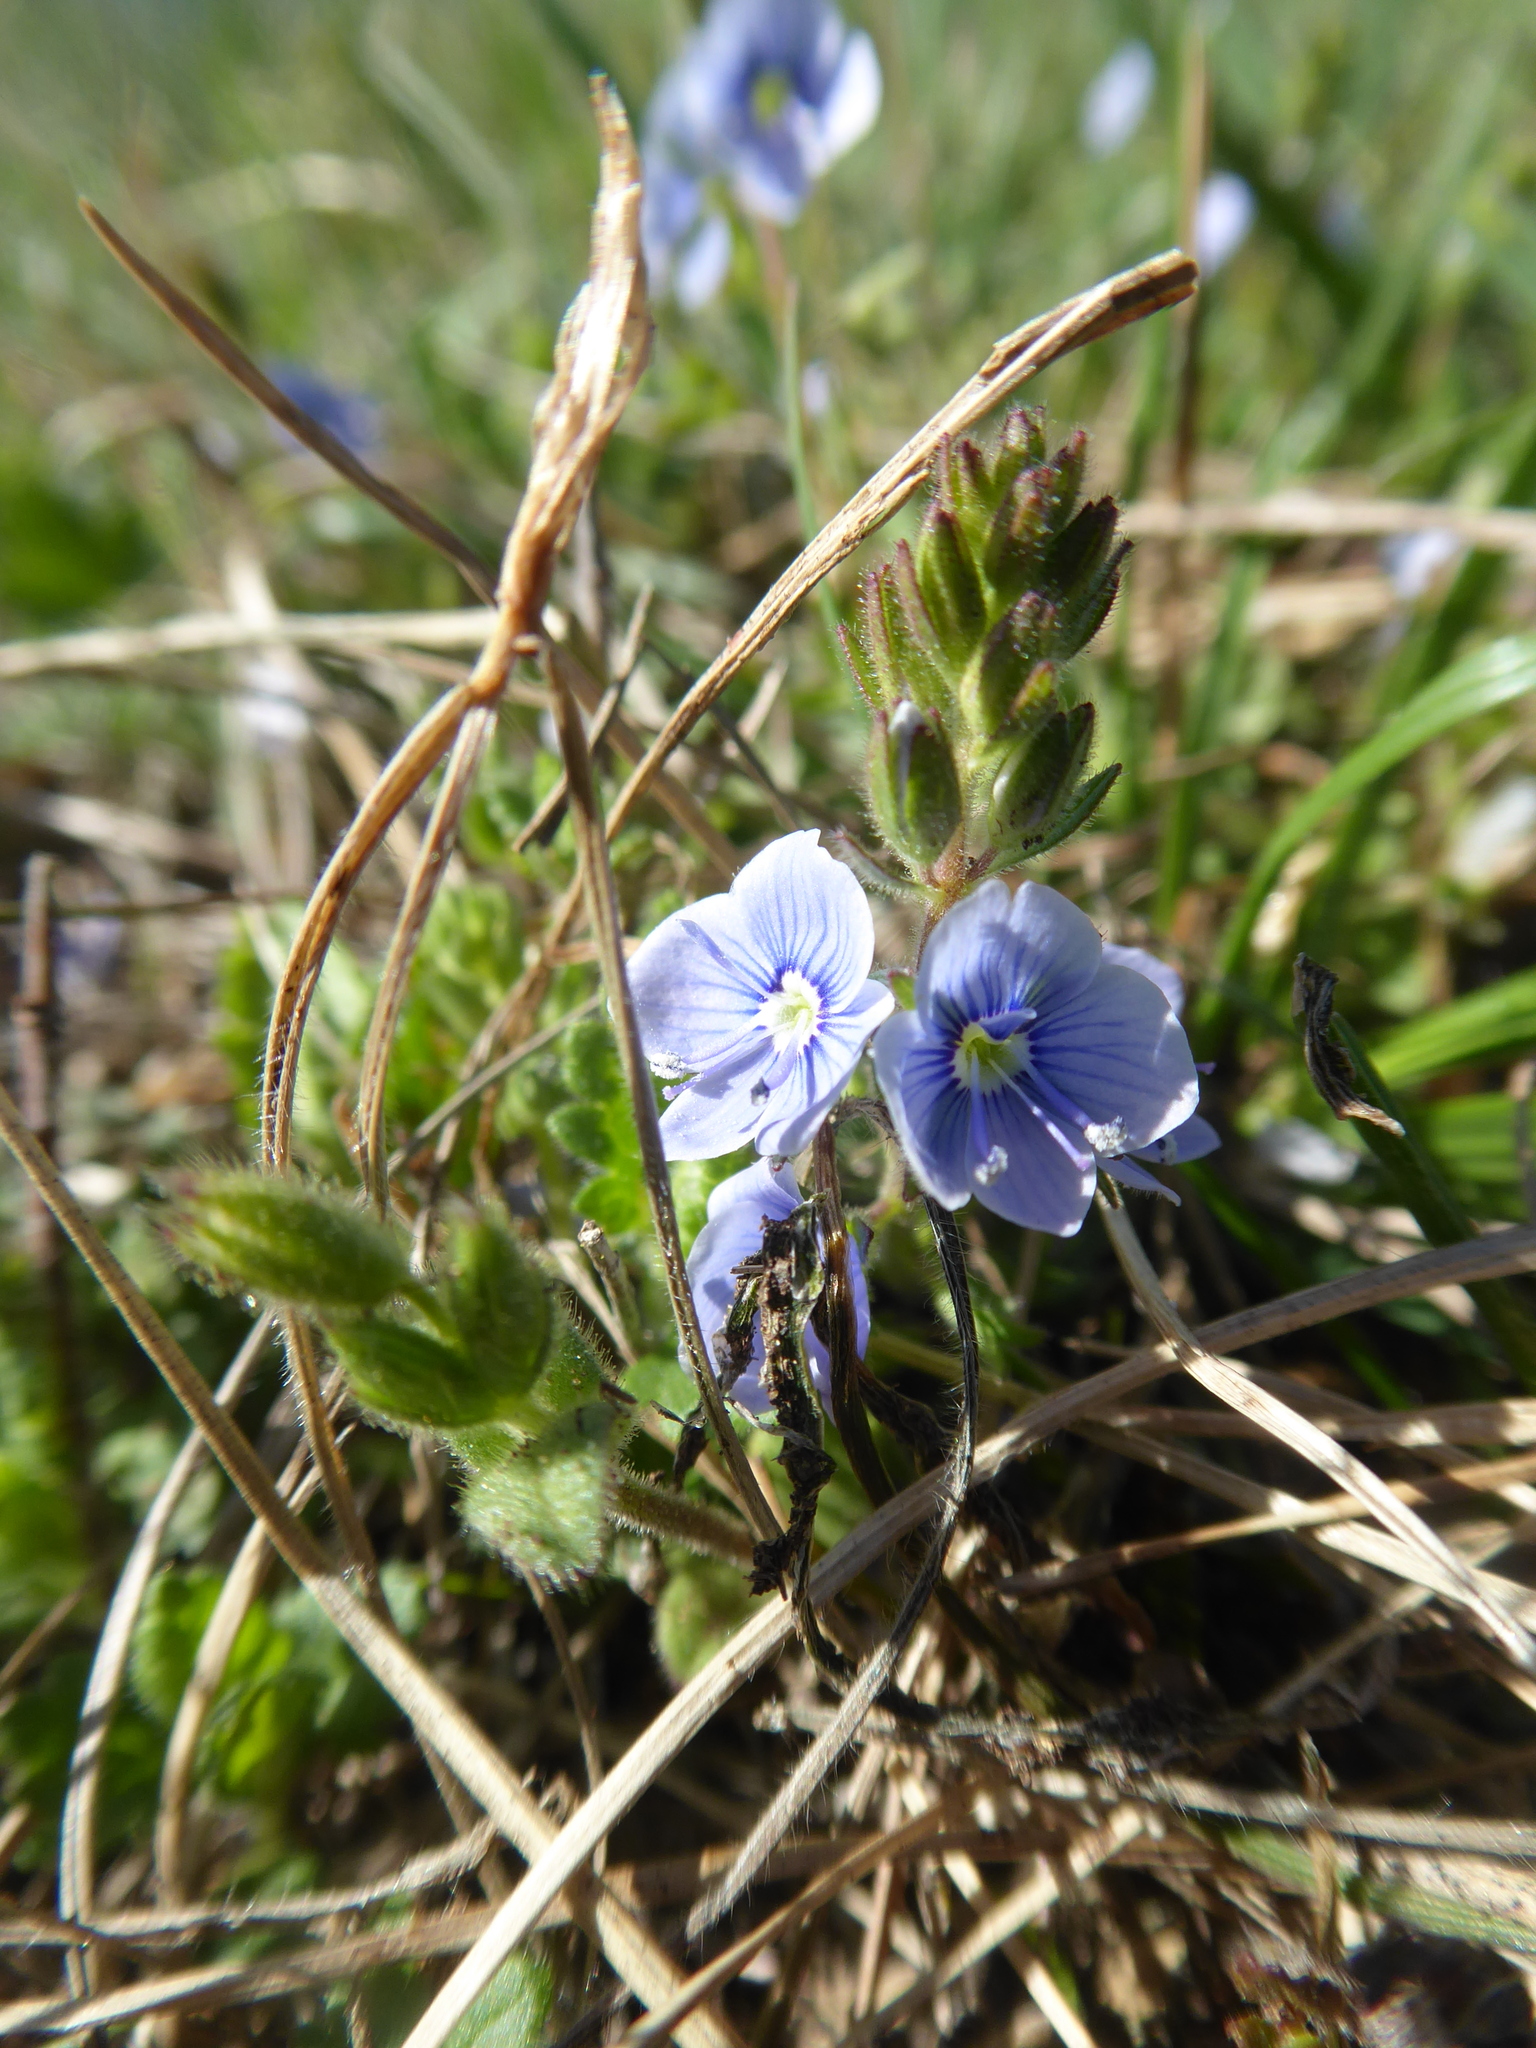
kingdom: Plantae
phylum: Tracheophyta
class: Magnoliopsida
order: Lamiales
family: Plantaginaceae
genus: Veronica
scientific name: Veronica chamaedrys
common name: Germander speedwell
